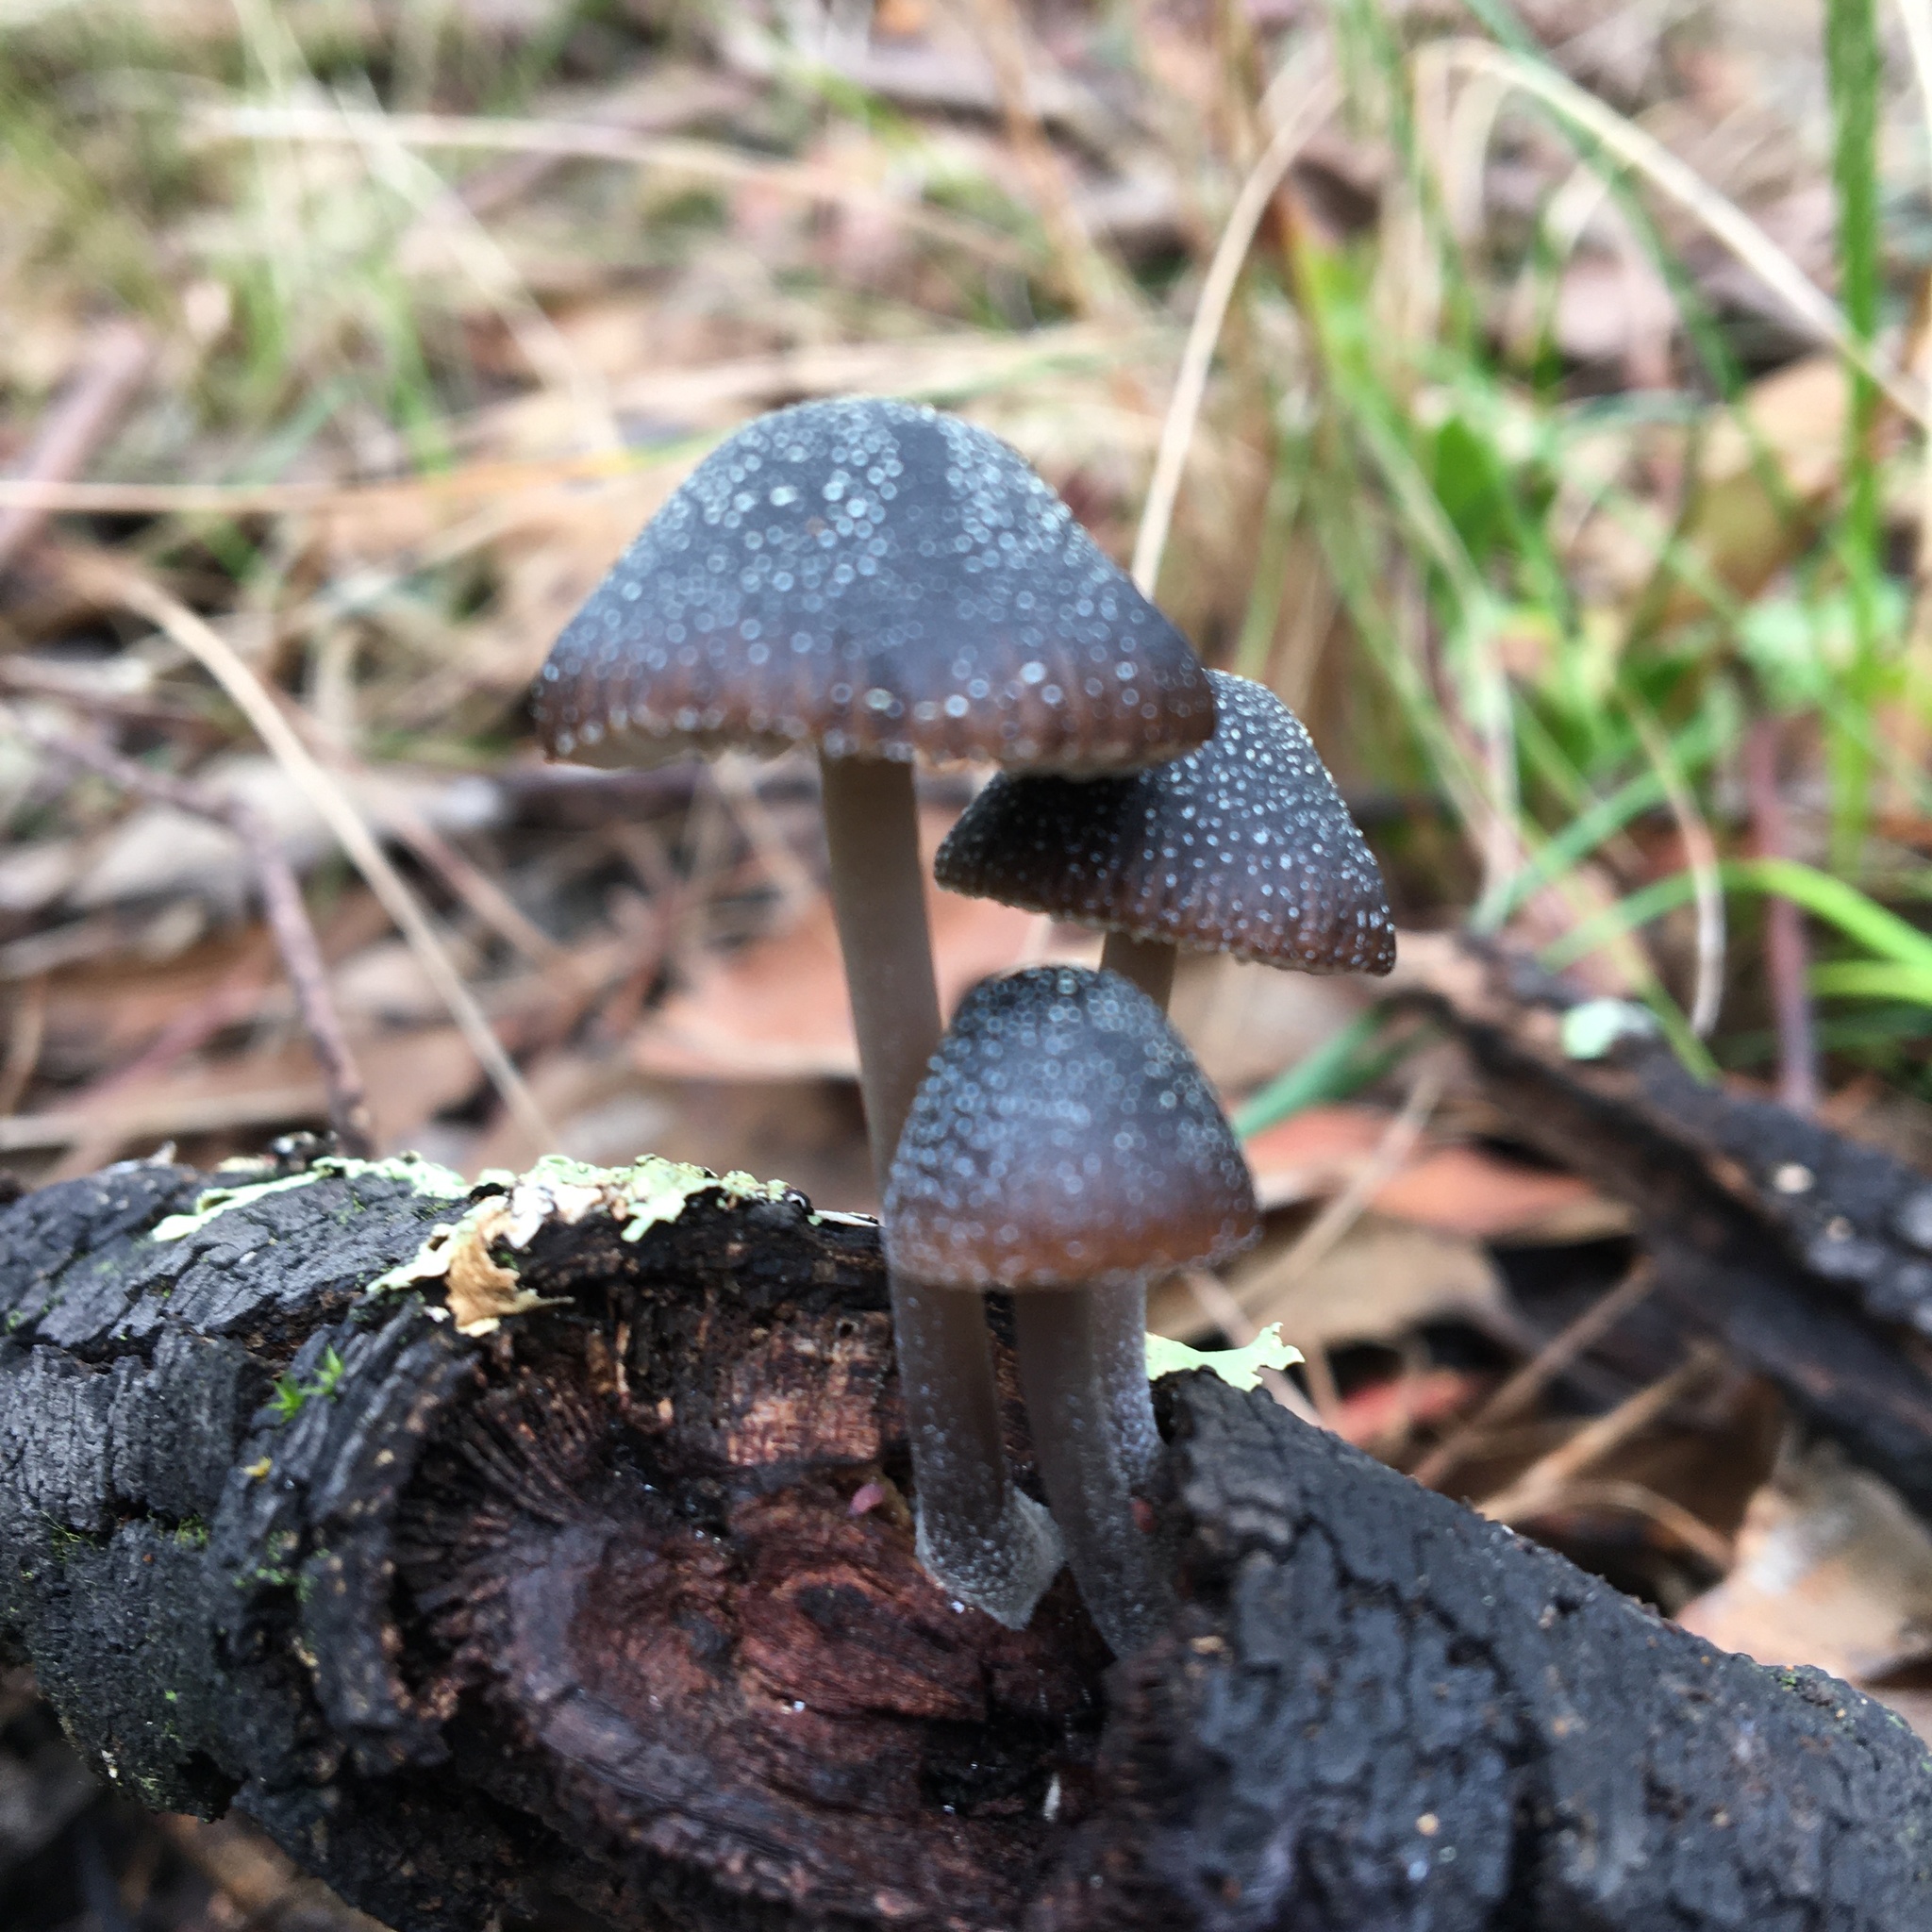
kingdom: Fungi
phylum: Basidiomycota
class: Agaricomycetes
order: Agaricales
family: Mycenaceae
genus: Mycena
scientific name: Mycena nargan
